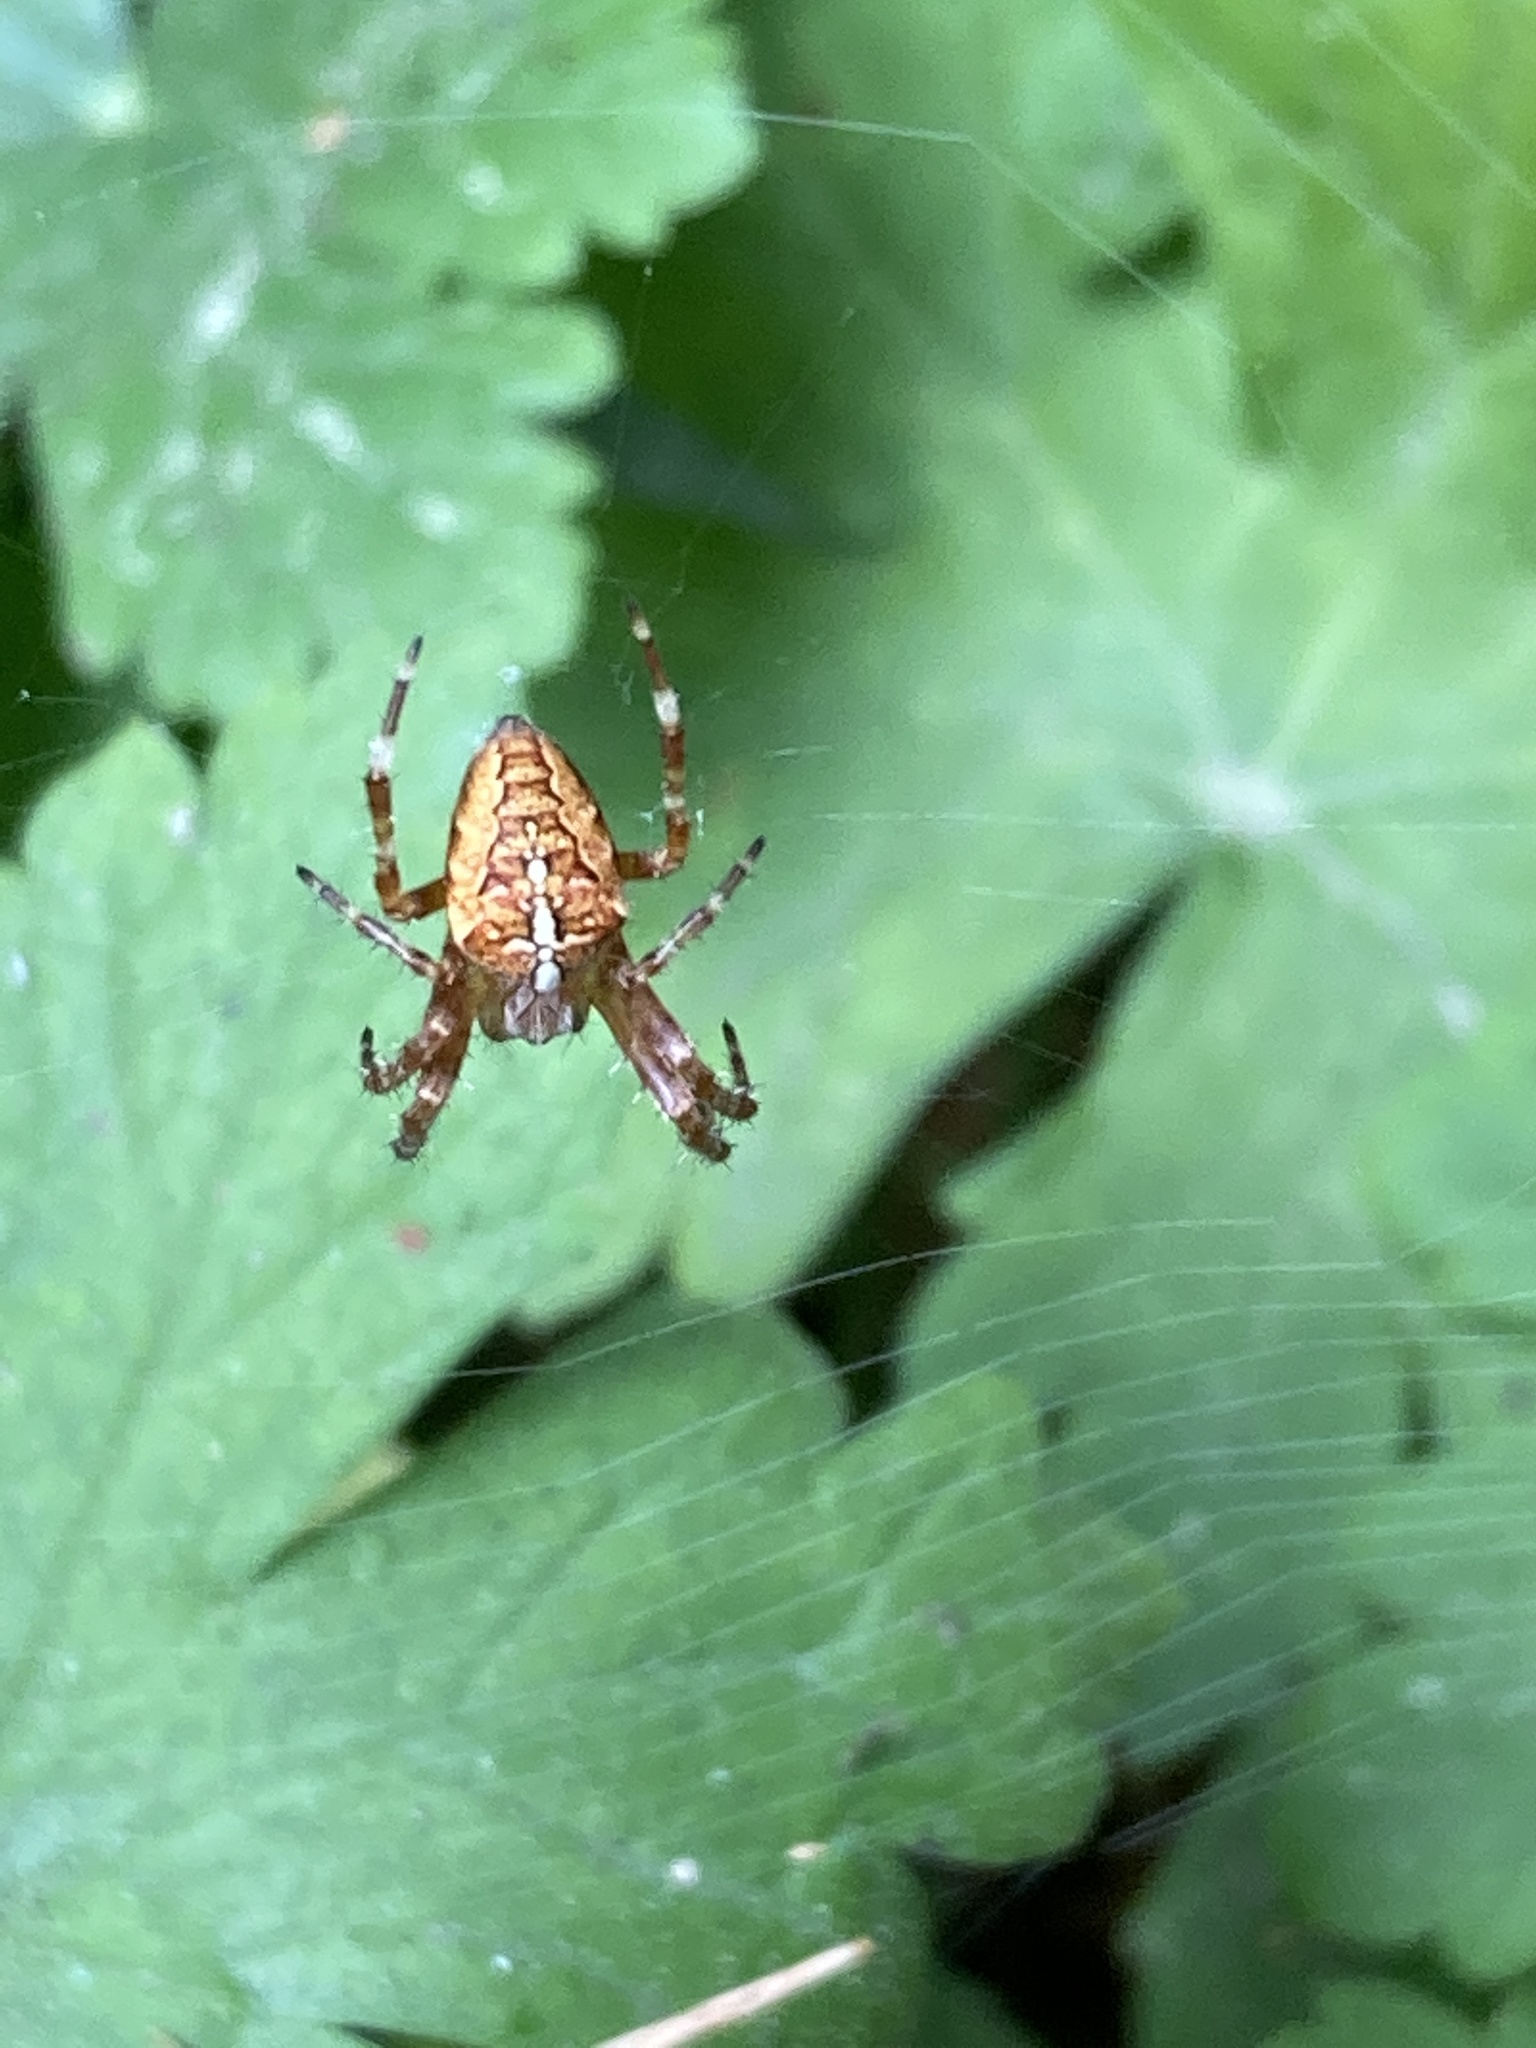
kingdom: Animalia
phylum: Arthropoda
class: Arachnida
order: Araneae
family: Araneidae
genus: Araneus
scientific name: Araneus diadematus
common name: Cross orbweaver
